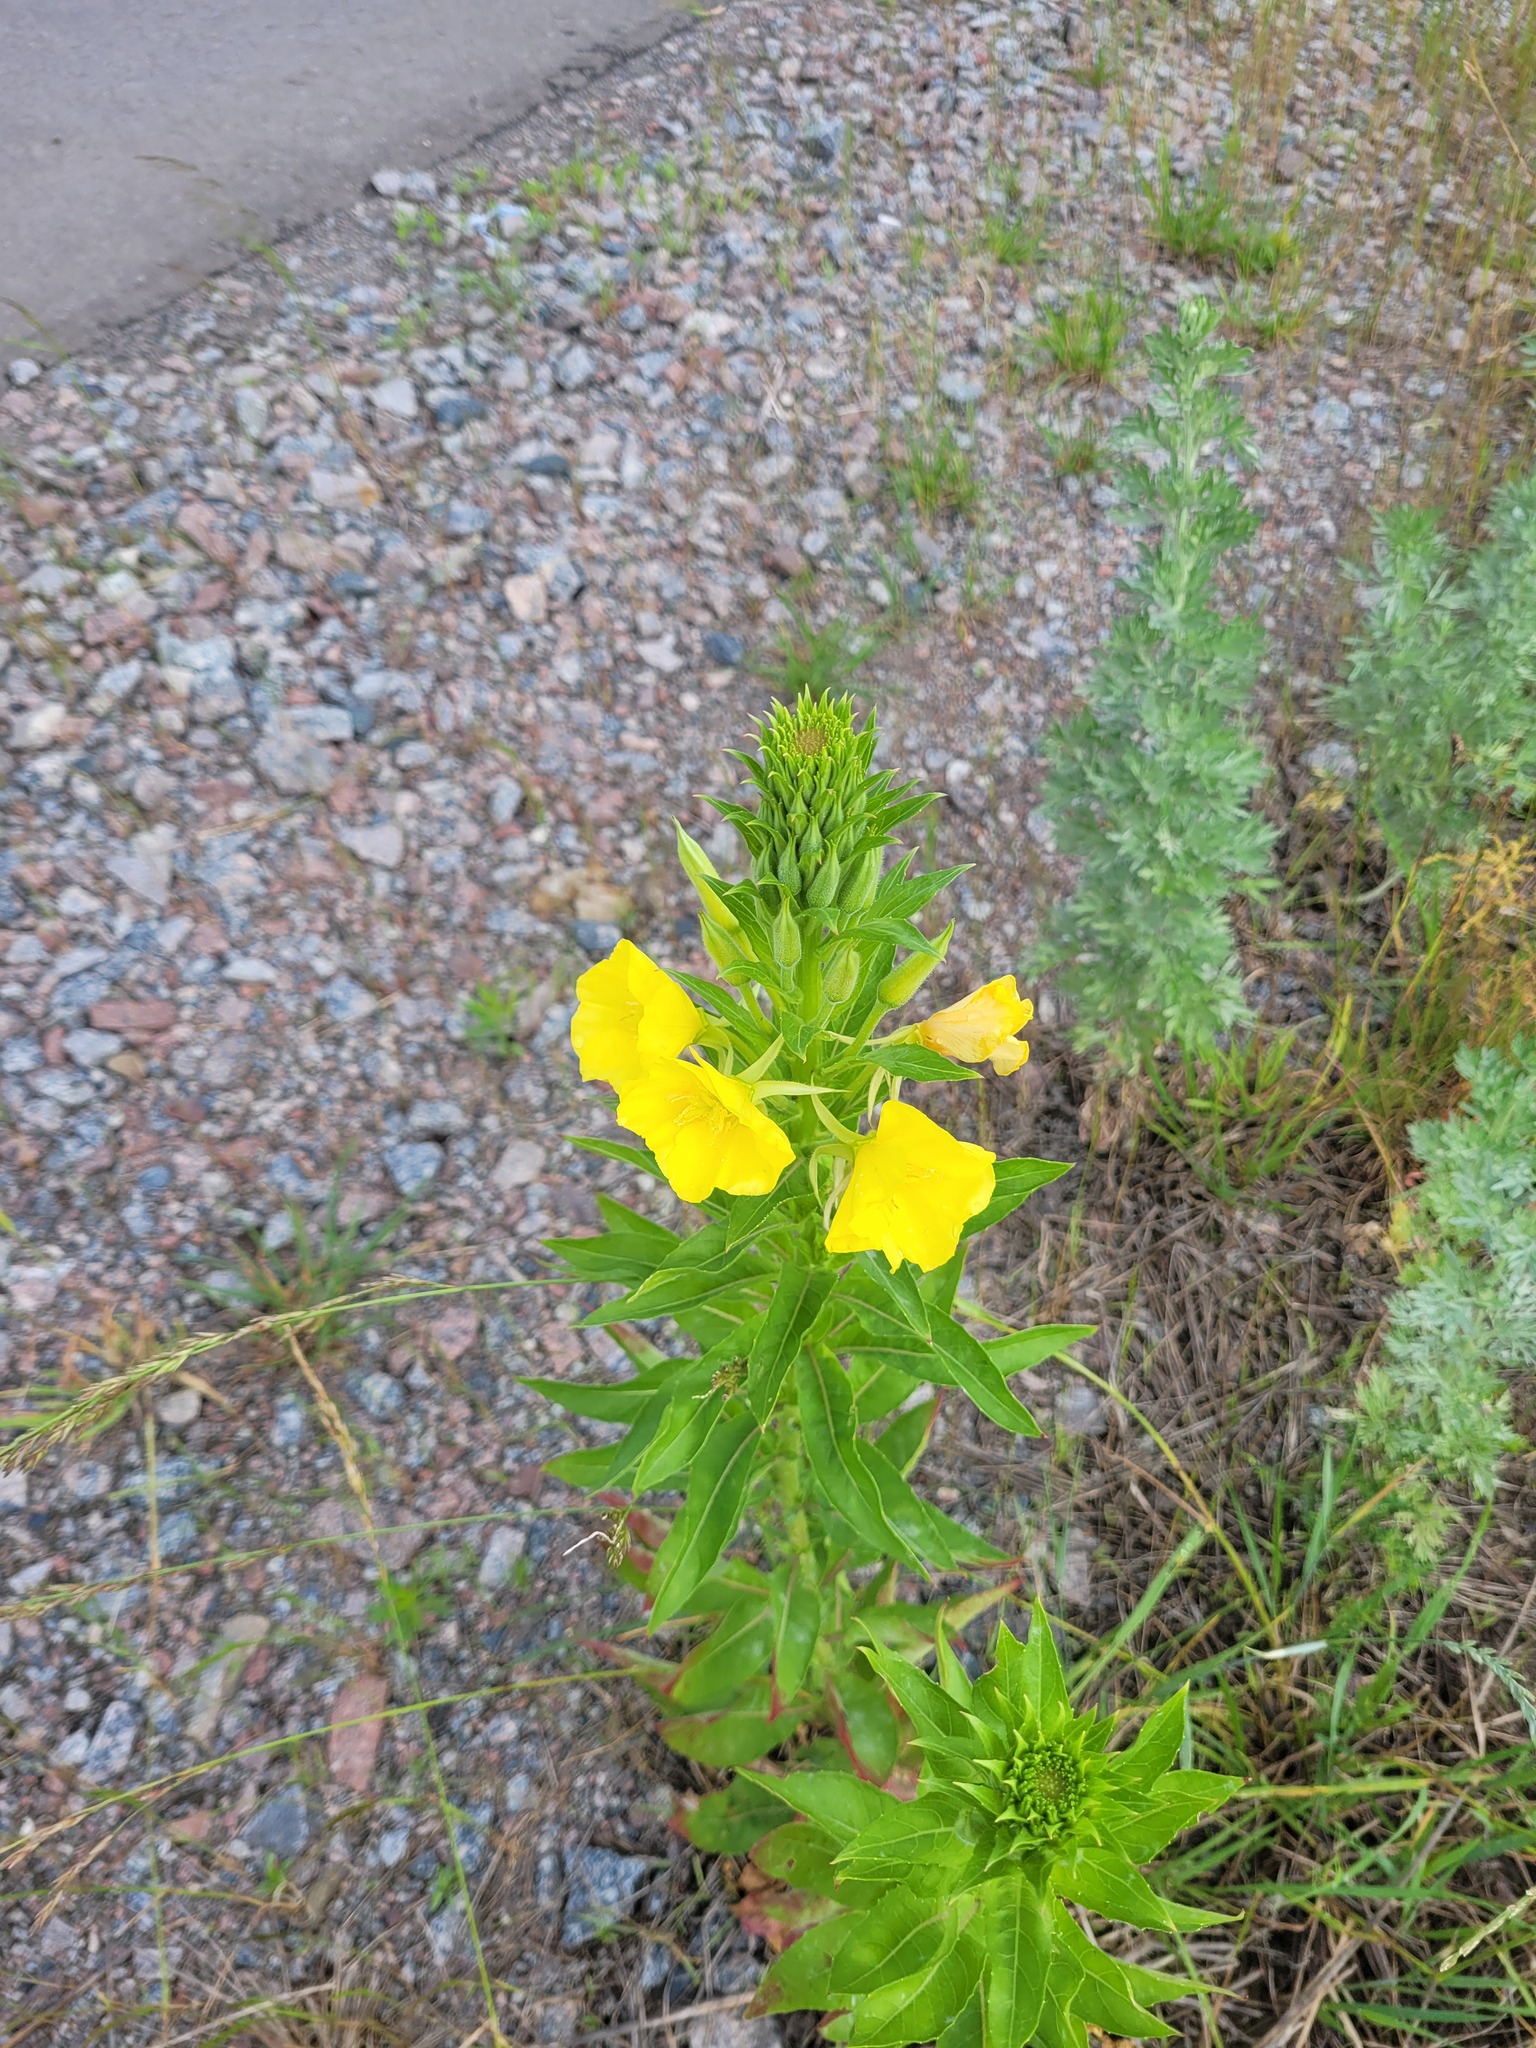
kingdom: Plantae
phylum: Tracheophyta
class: Magnoliopsida
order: Myrtales
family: Onagraceae
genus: Oenothera
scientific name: Oenothera biennis
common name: Common evening-primrose
